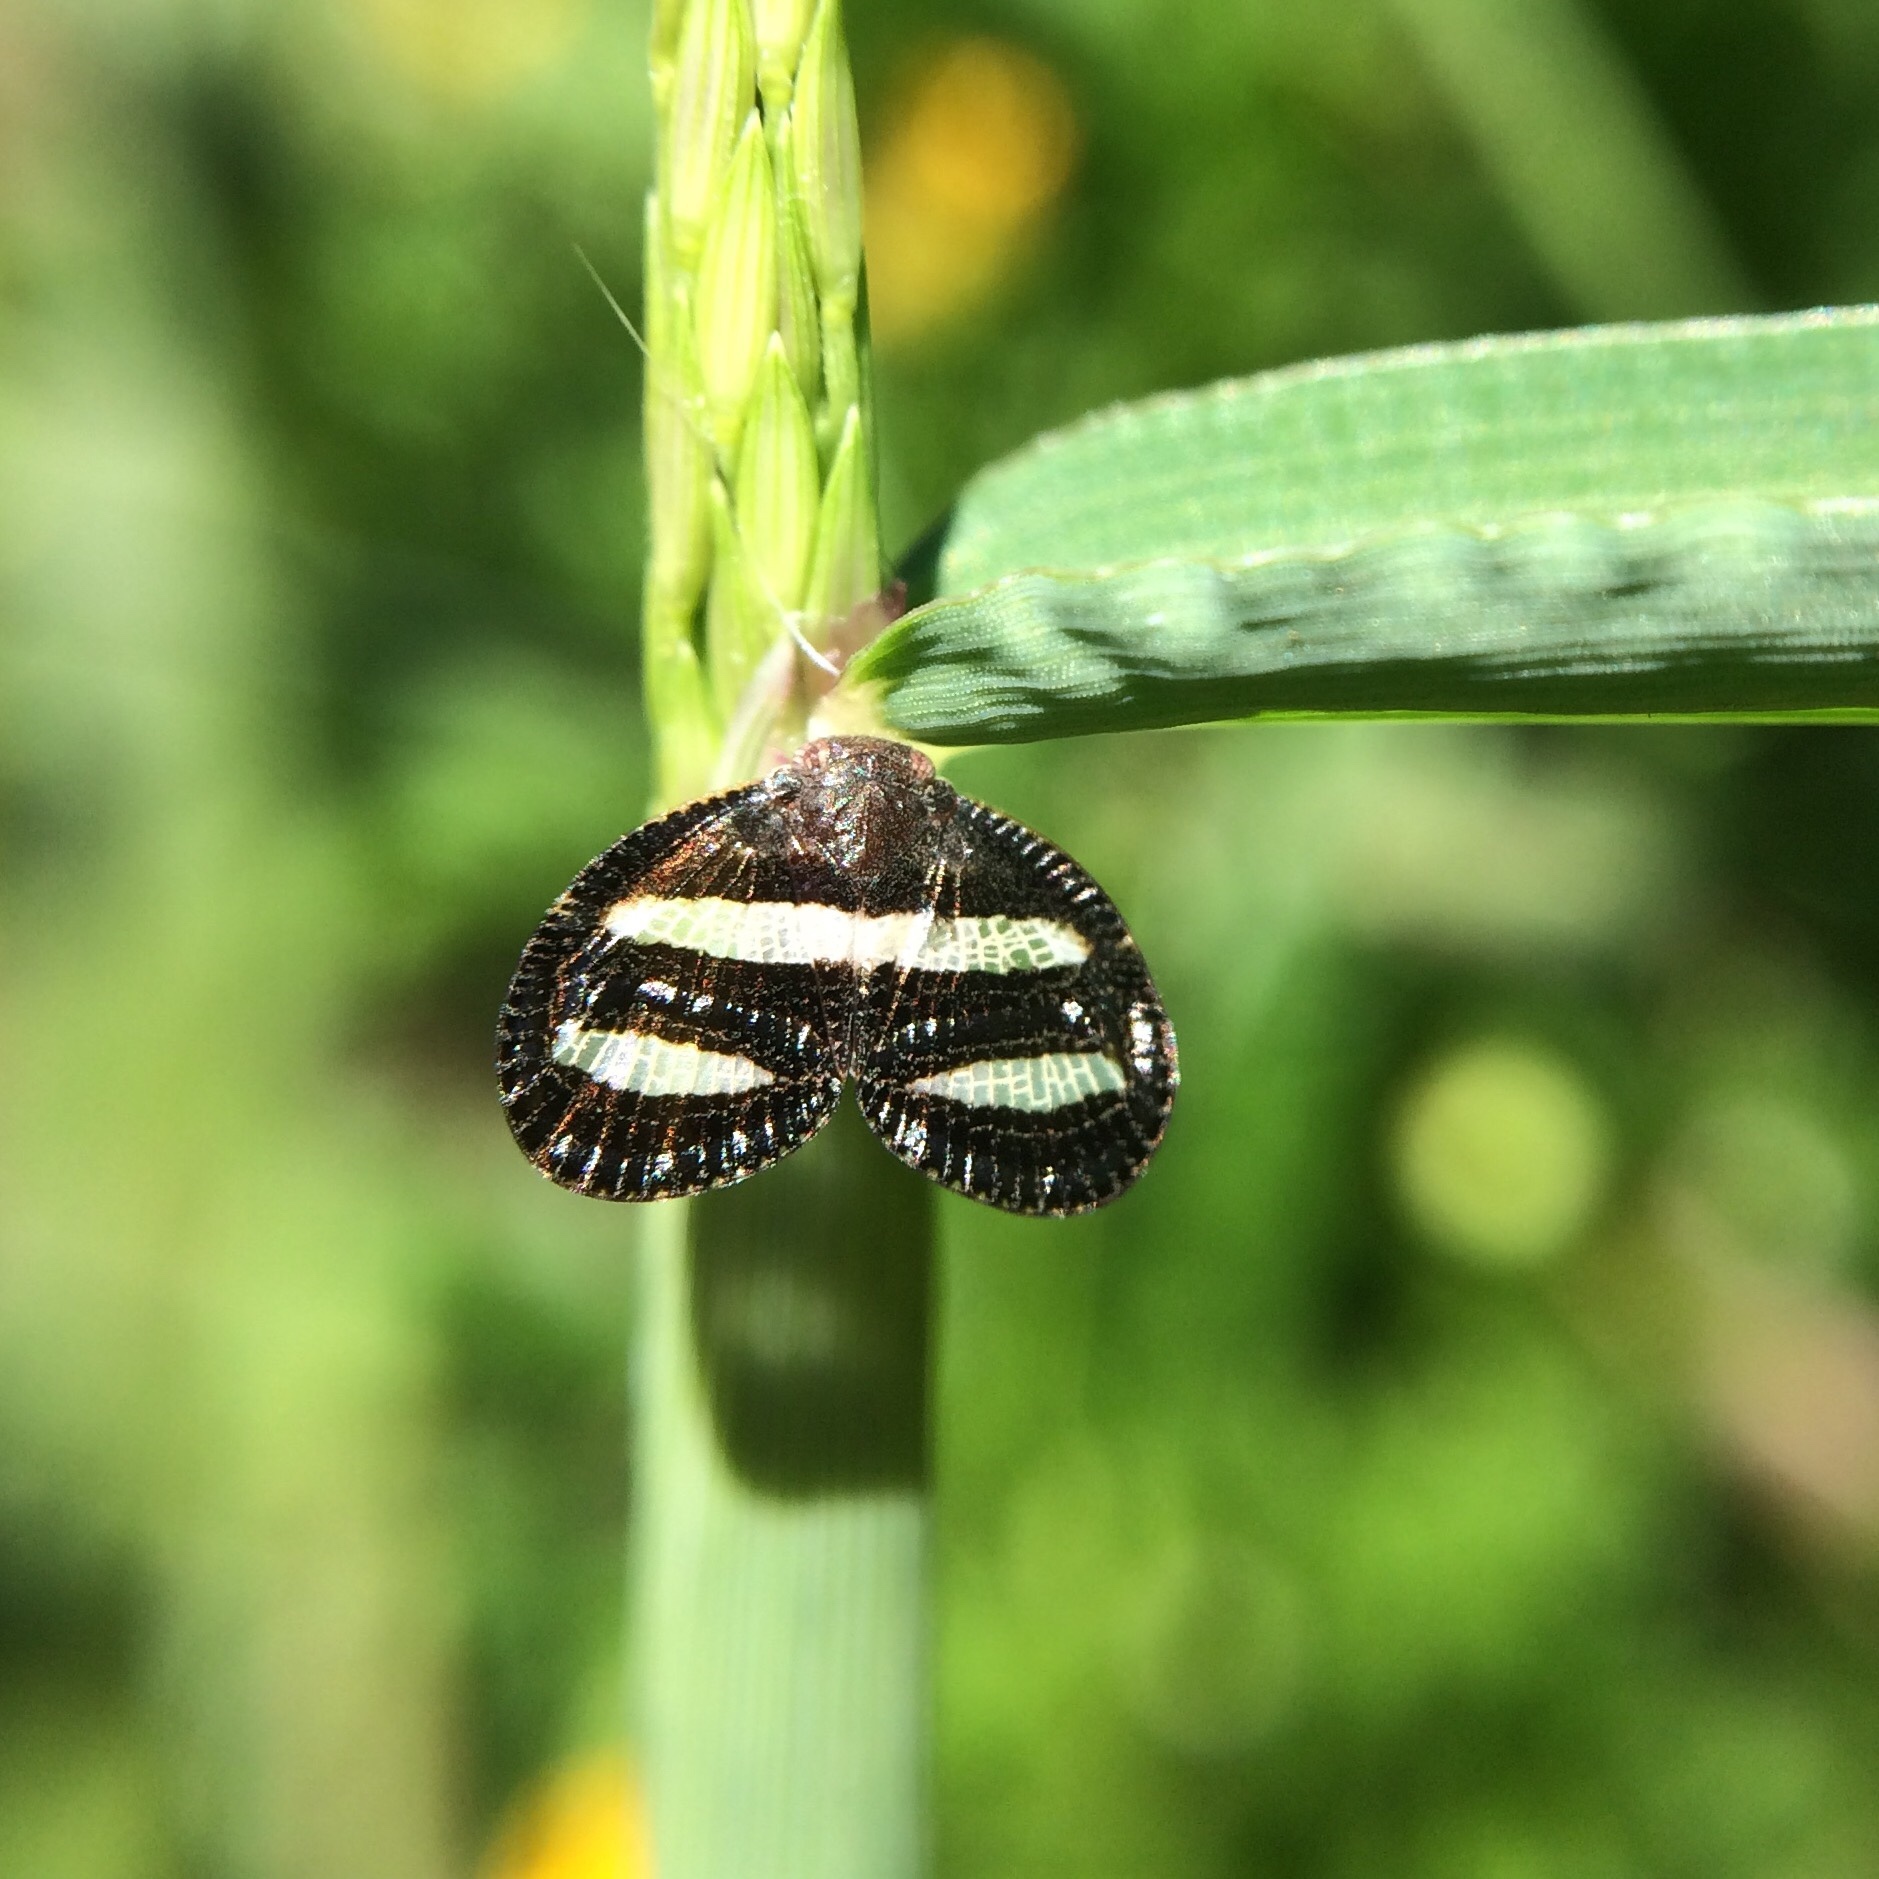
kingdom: Animalia
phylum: Arthropoda
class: Insecta
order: Hemiptera
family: Ricaniidae
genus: Mulvia
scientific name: Mulvia albizona
